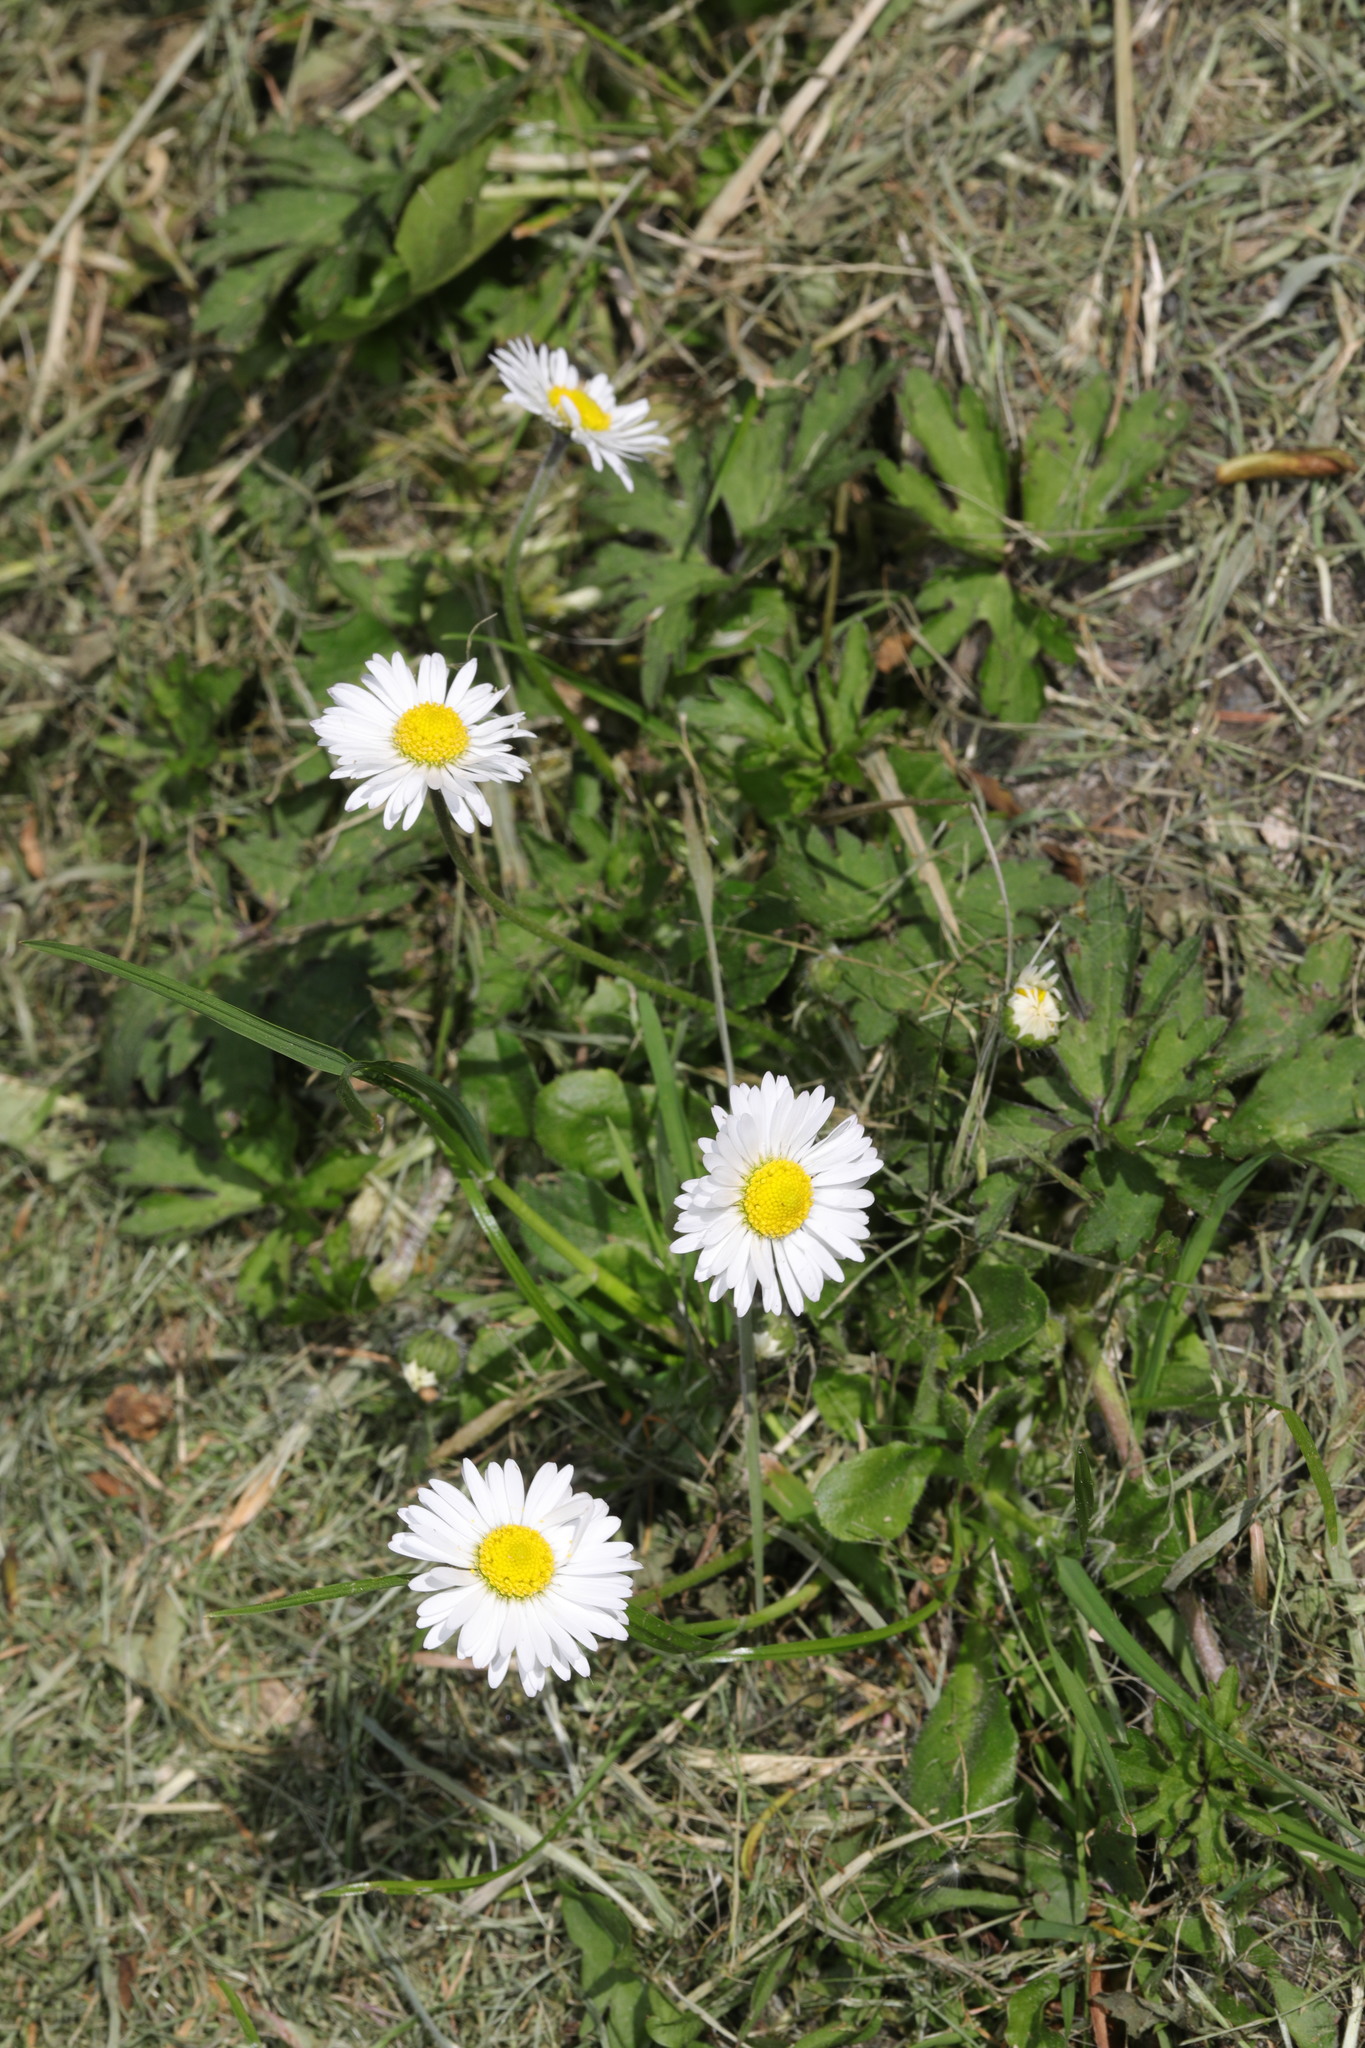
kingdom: Plantae
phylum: Tracheophyta
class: Magnoliopsida
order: Asterales
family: Asteraceae
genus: Bellis
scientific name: Bellis perennis
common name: Lawndaisy
